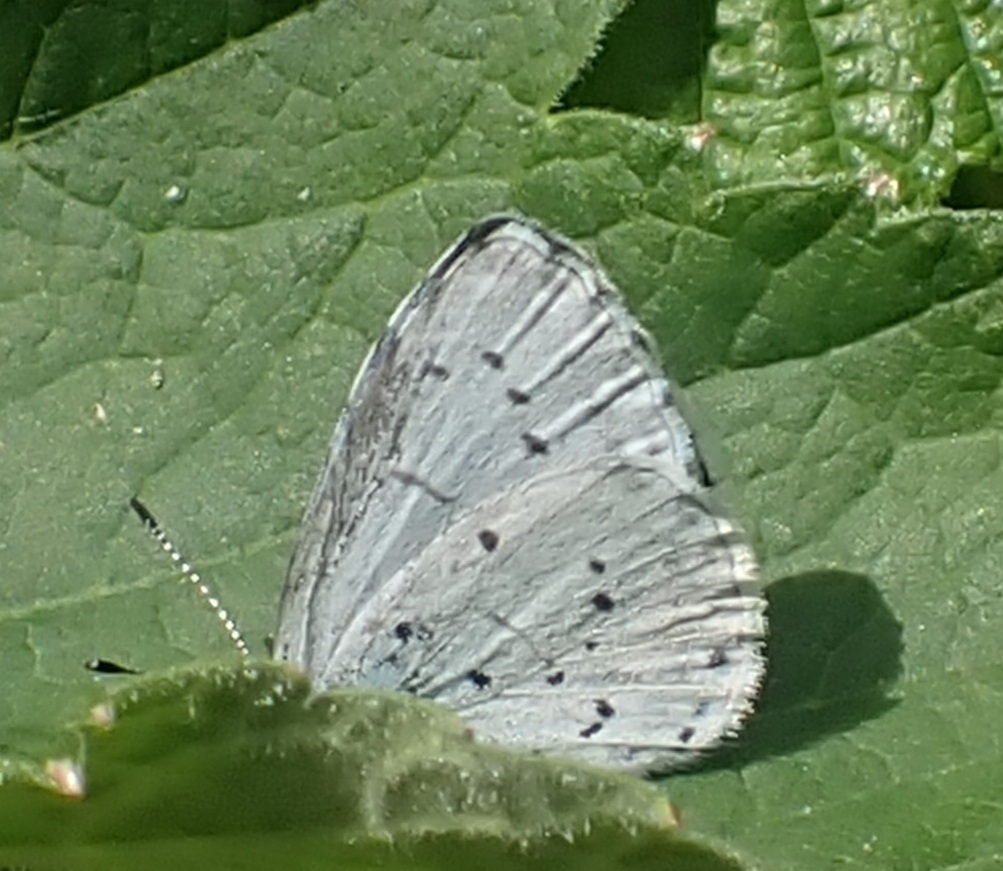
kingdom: Animalia
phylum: Arthropoda
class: Insecta
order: Lepidoptera
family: Lycaenidae
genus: Celastrina
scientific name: Celastrina argiolus
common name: Holly blue
